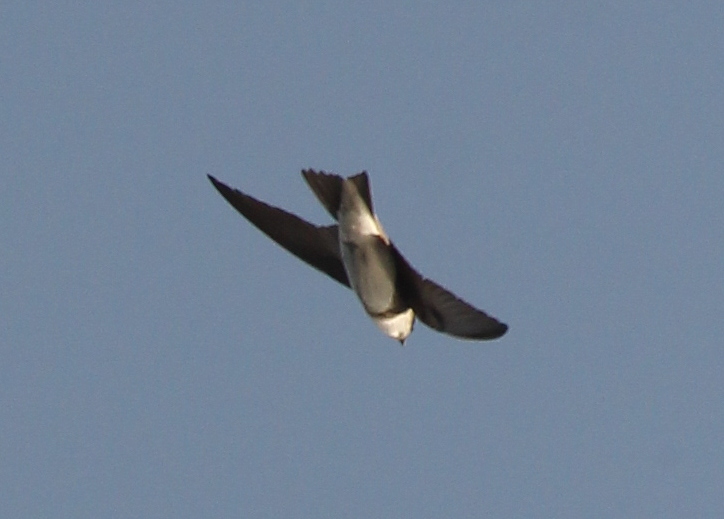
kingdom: Animalia
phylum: Chordata
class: Aves
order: Passeriformes
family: Hirundinidae
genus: Riparia
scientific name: Riparia riparia
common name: Sand martin
